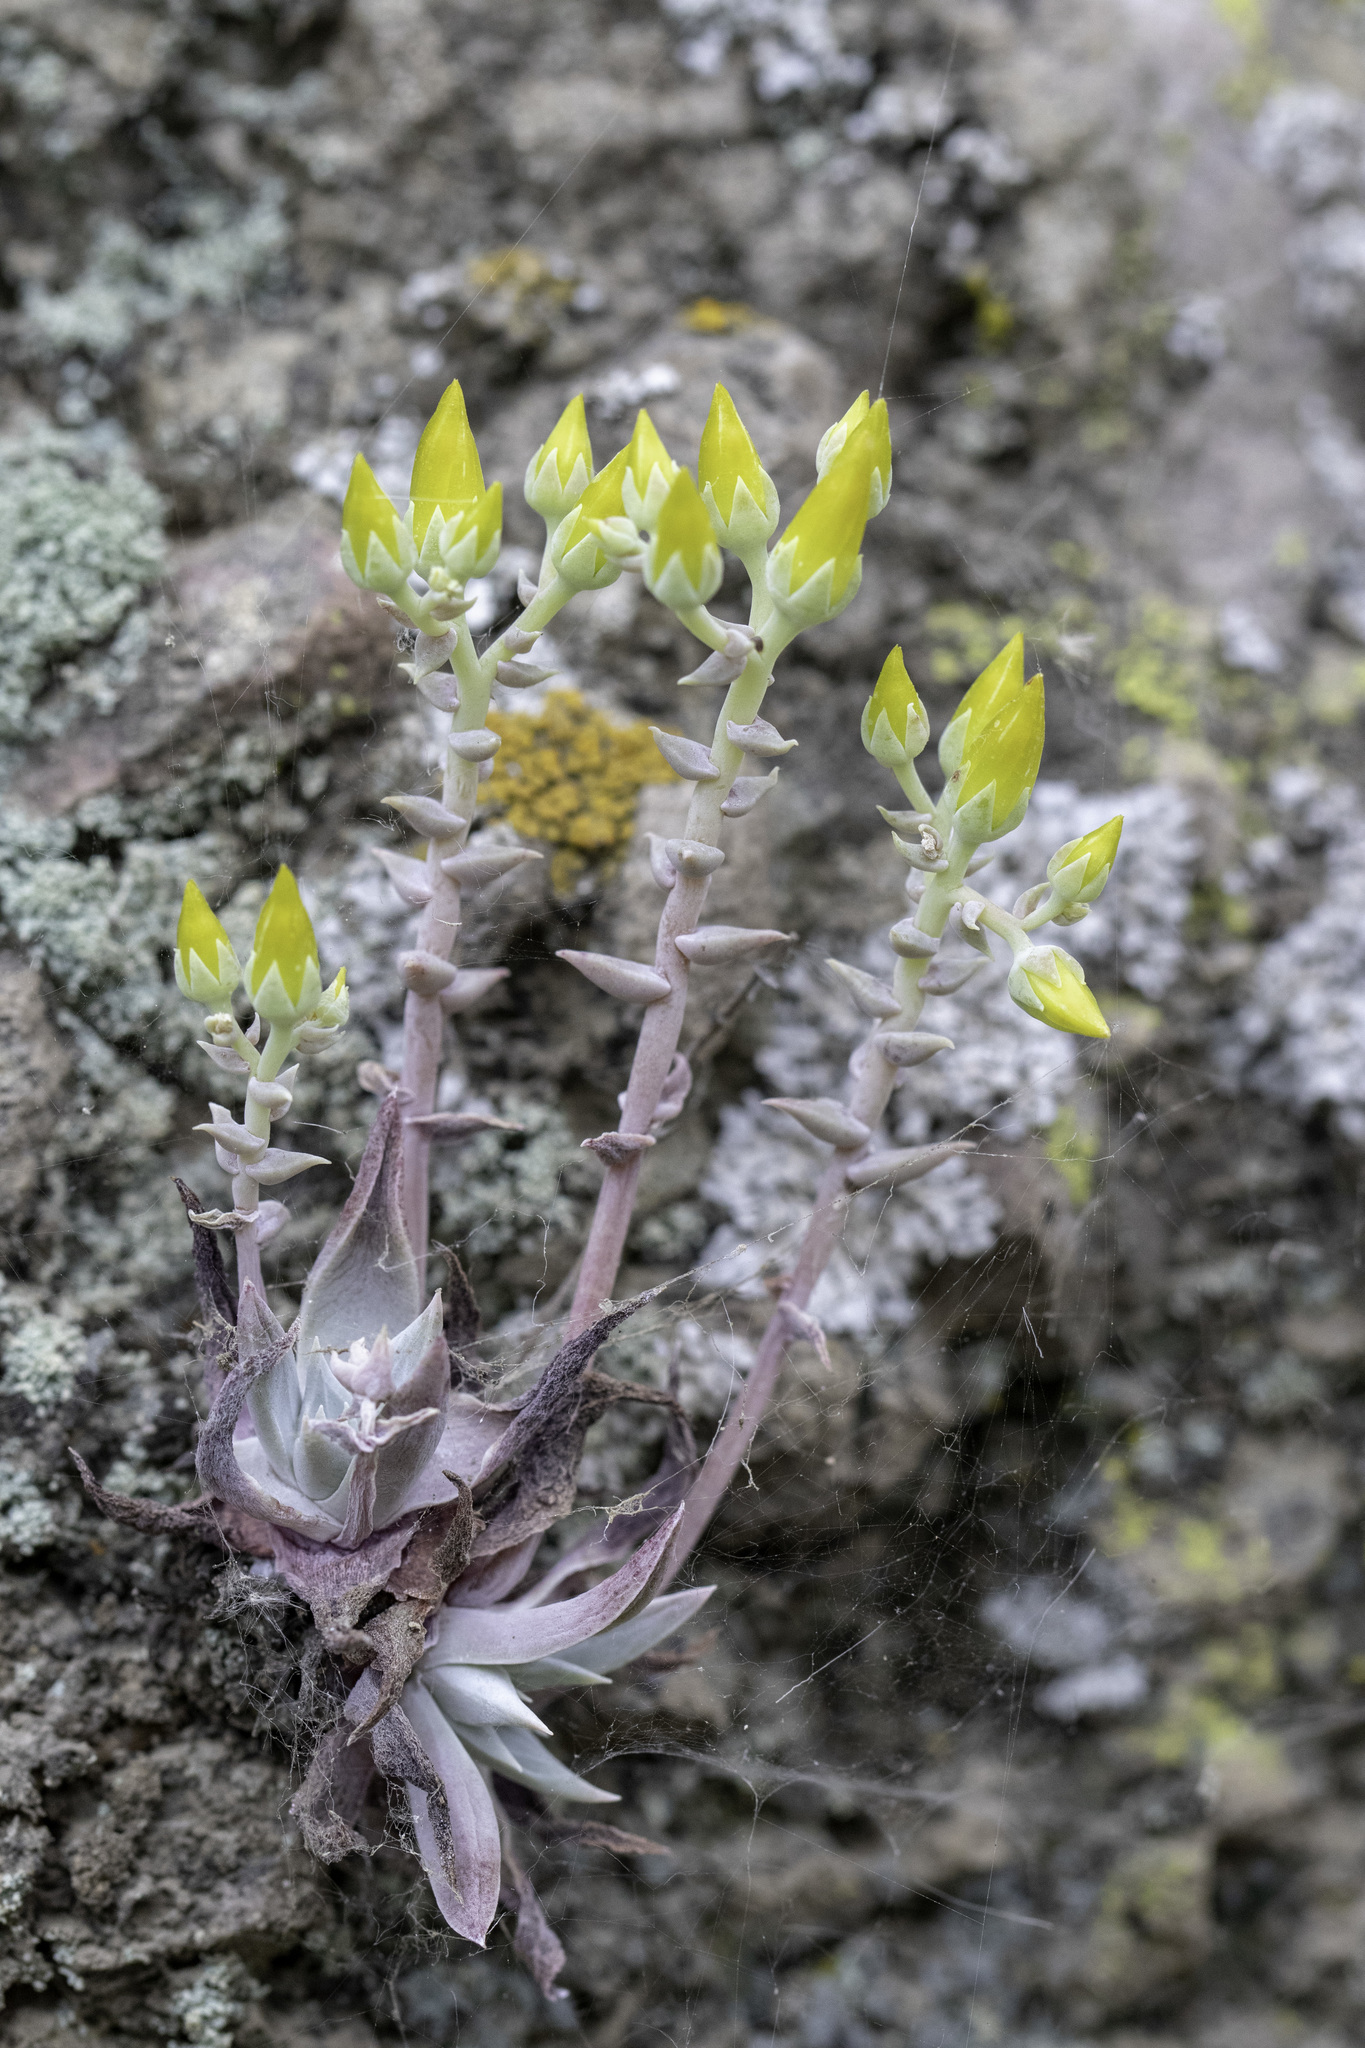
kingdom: Plantae
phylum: Tracheophyta
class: Magnoliopsida
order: Saxifragales
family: Crassulaceae
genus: Dudleya
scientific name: Dudleya verityi
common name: Verity dudleya
